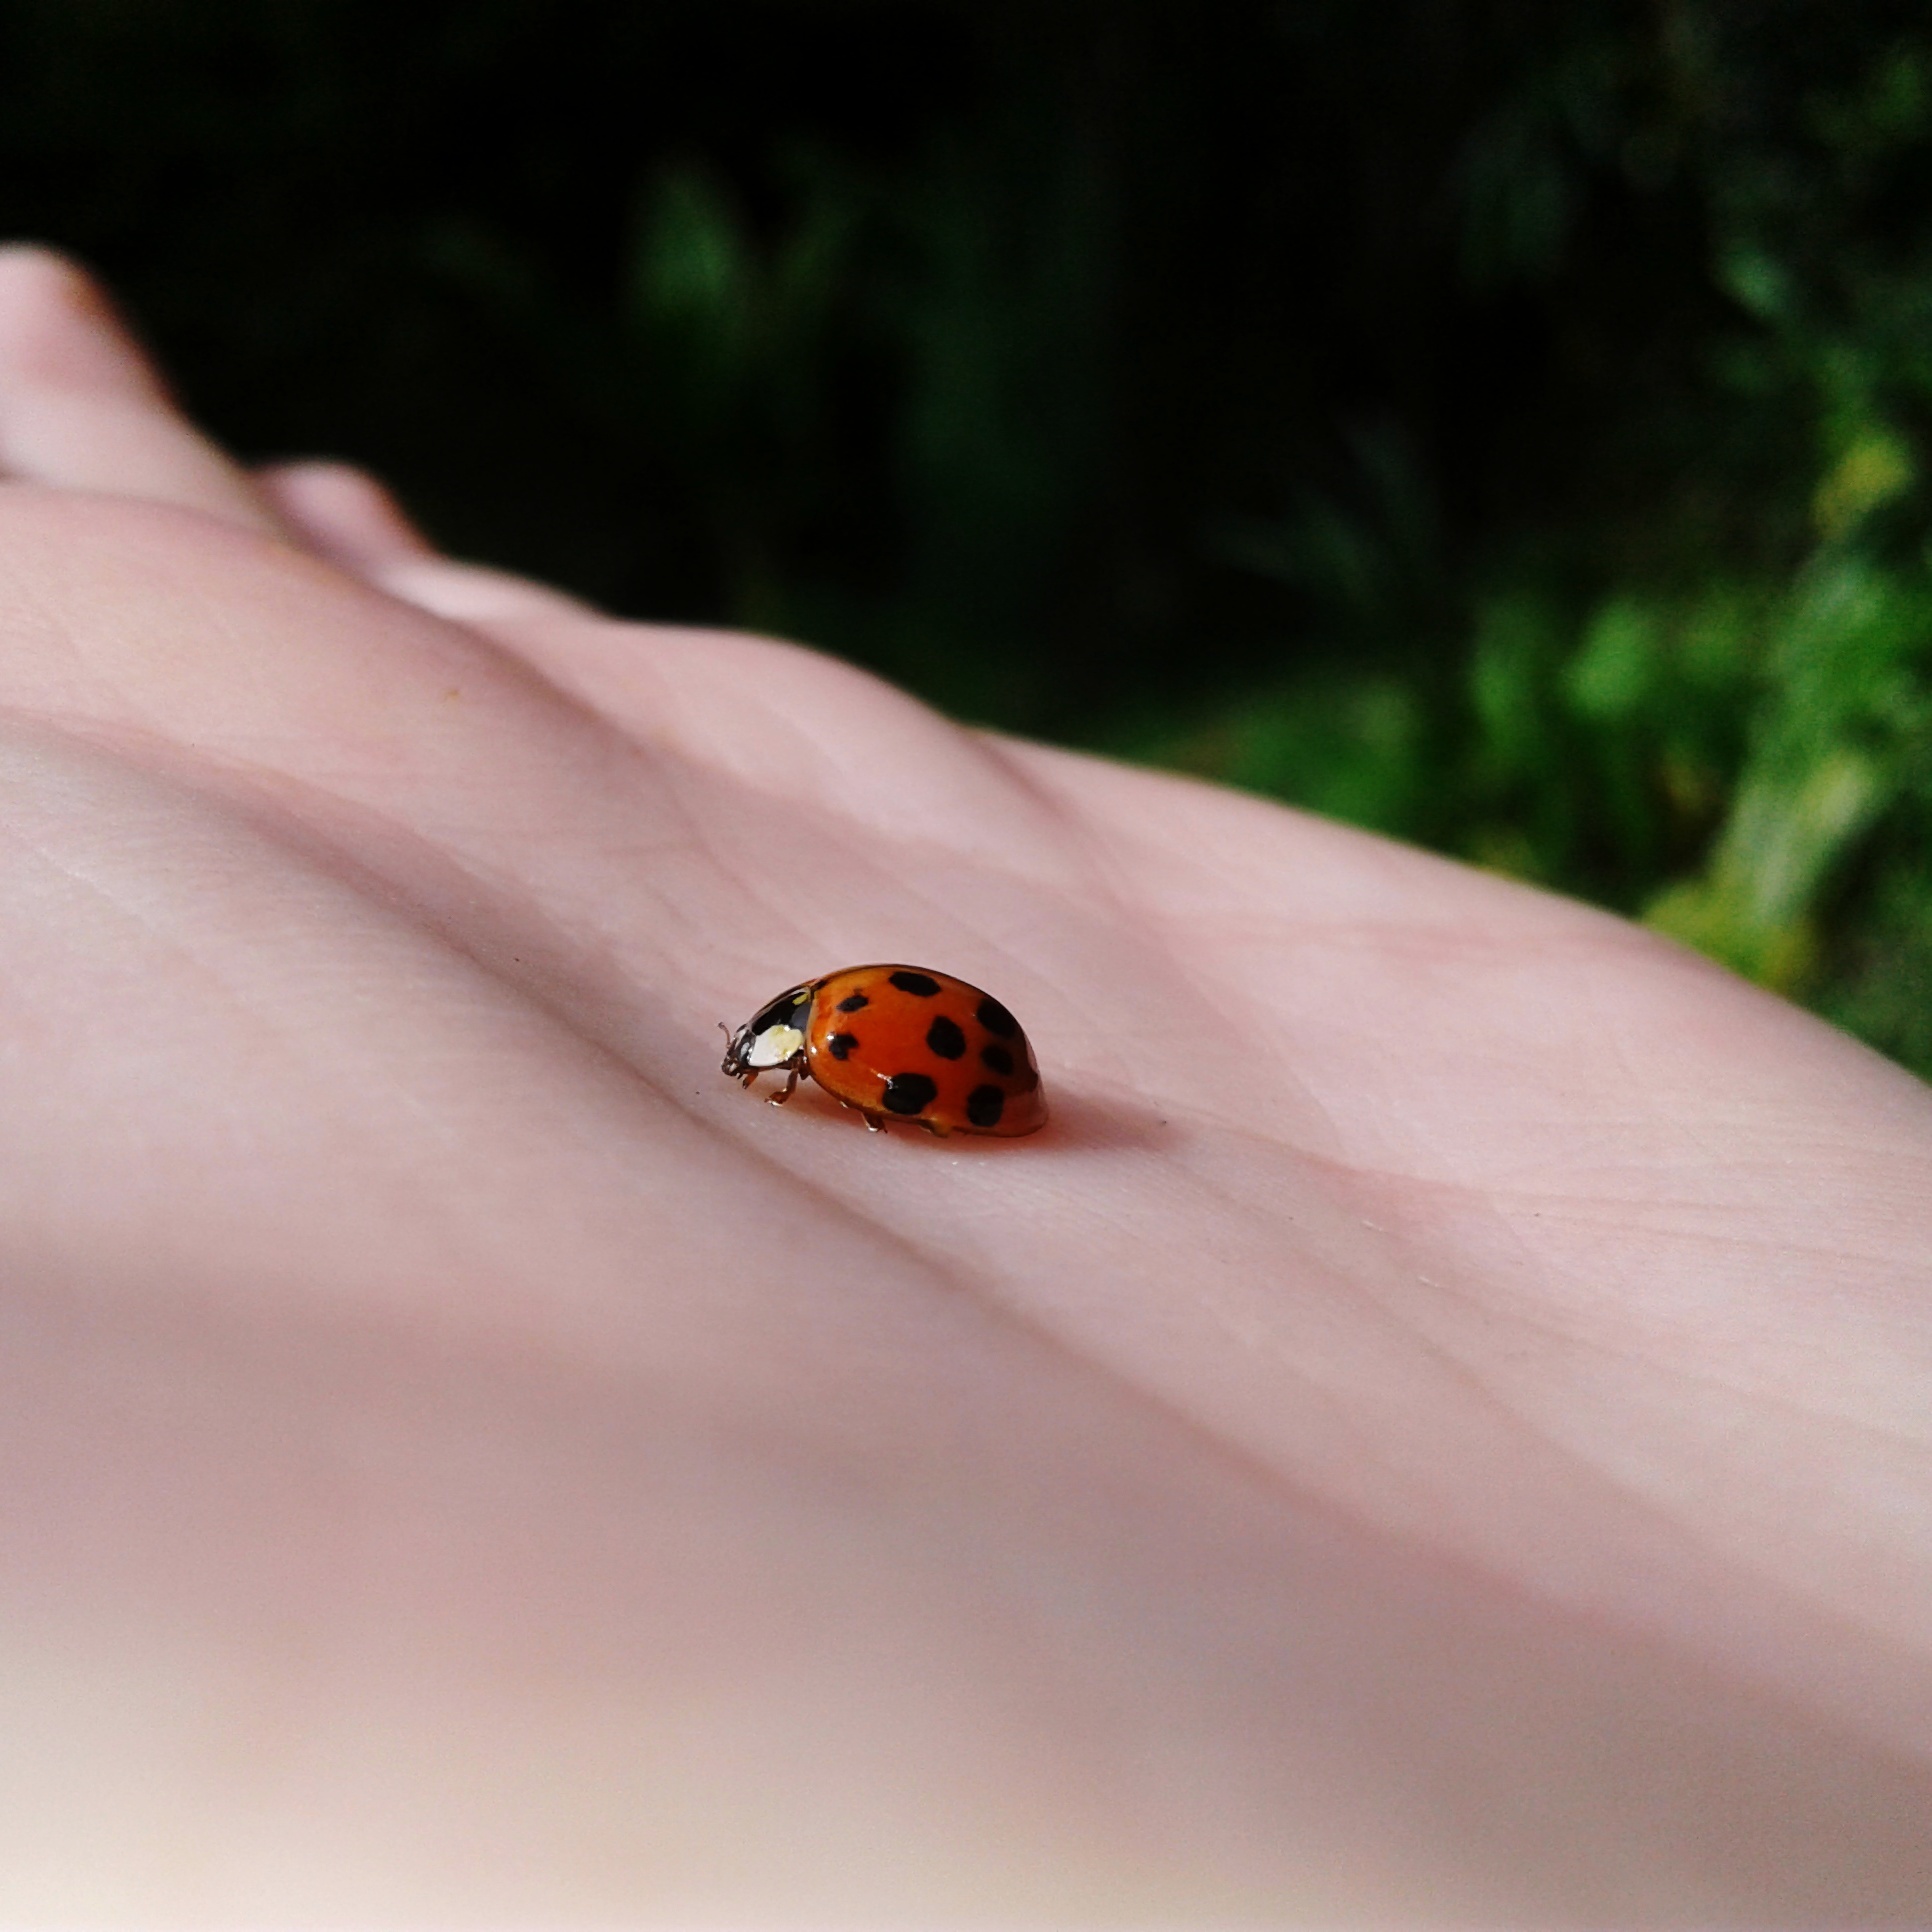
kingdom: Animalia
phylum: Arthropoda
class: Insecta
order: Coleoptera
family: Coccinellidae
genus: Harmonia
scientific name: Harmonia axyridis
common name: Harlequin ladybird
